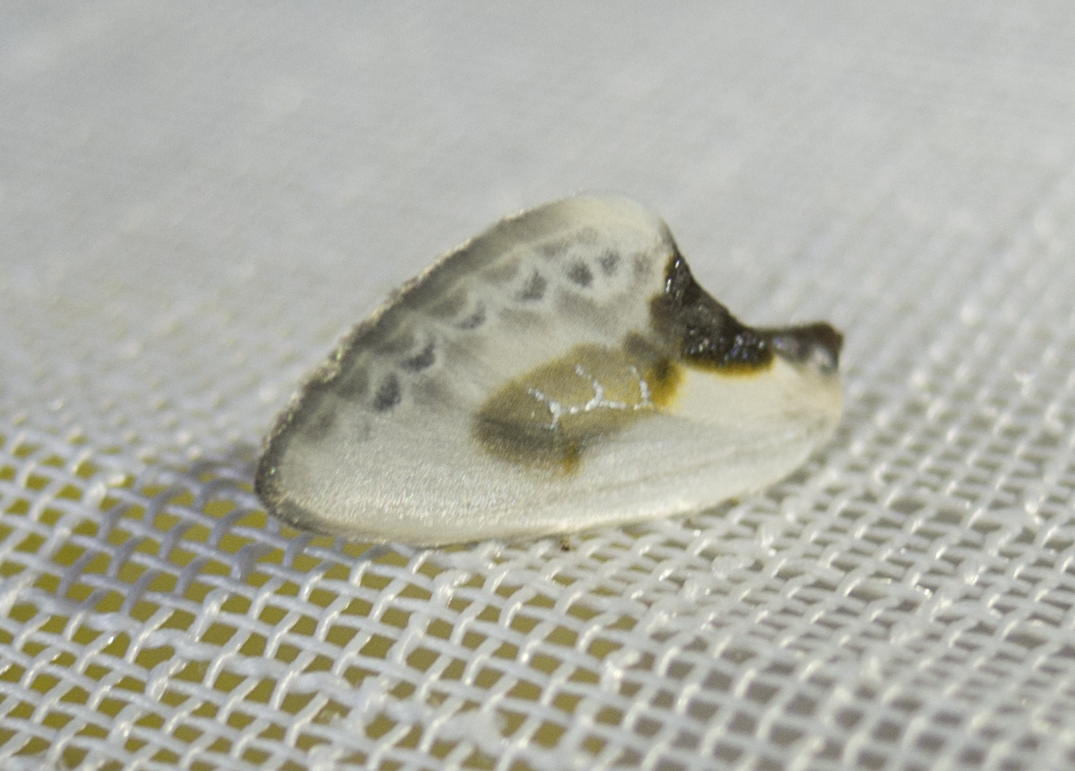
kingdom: Animalia
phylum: Arthropoda
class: Insecta
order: Lepidoptera
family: Drepanidae
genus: Cilix
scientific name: Cilix glaucata
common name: Chinese character
